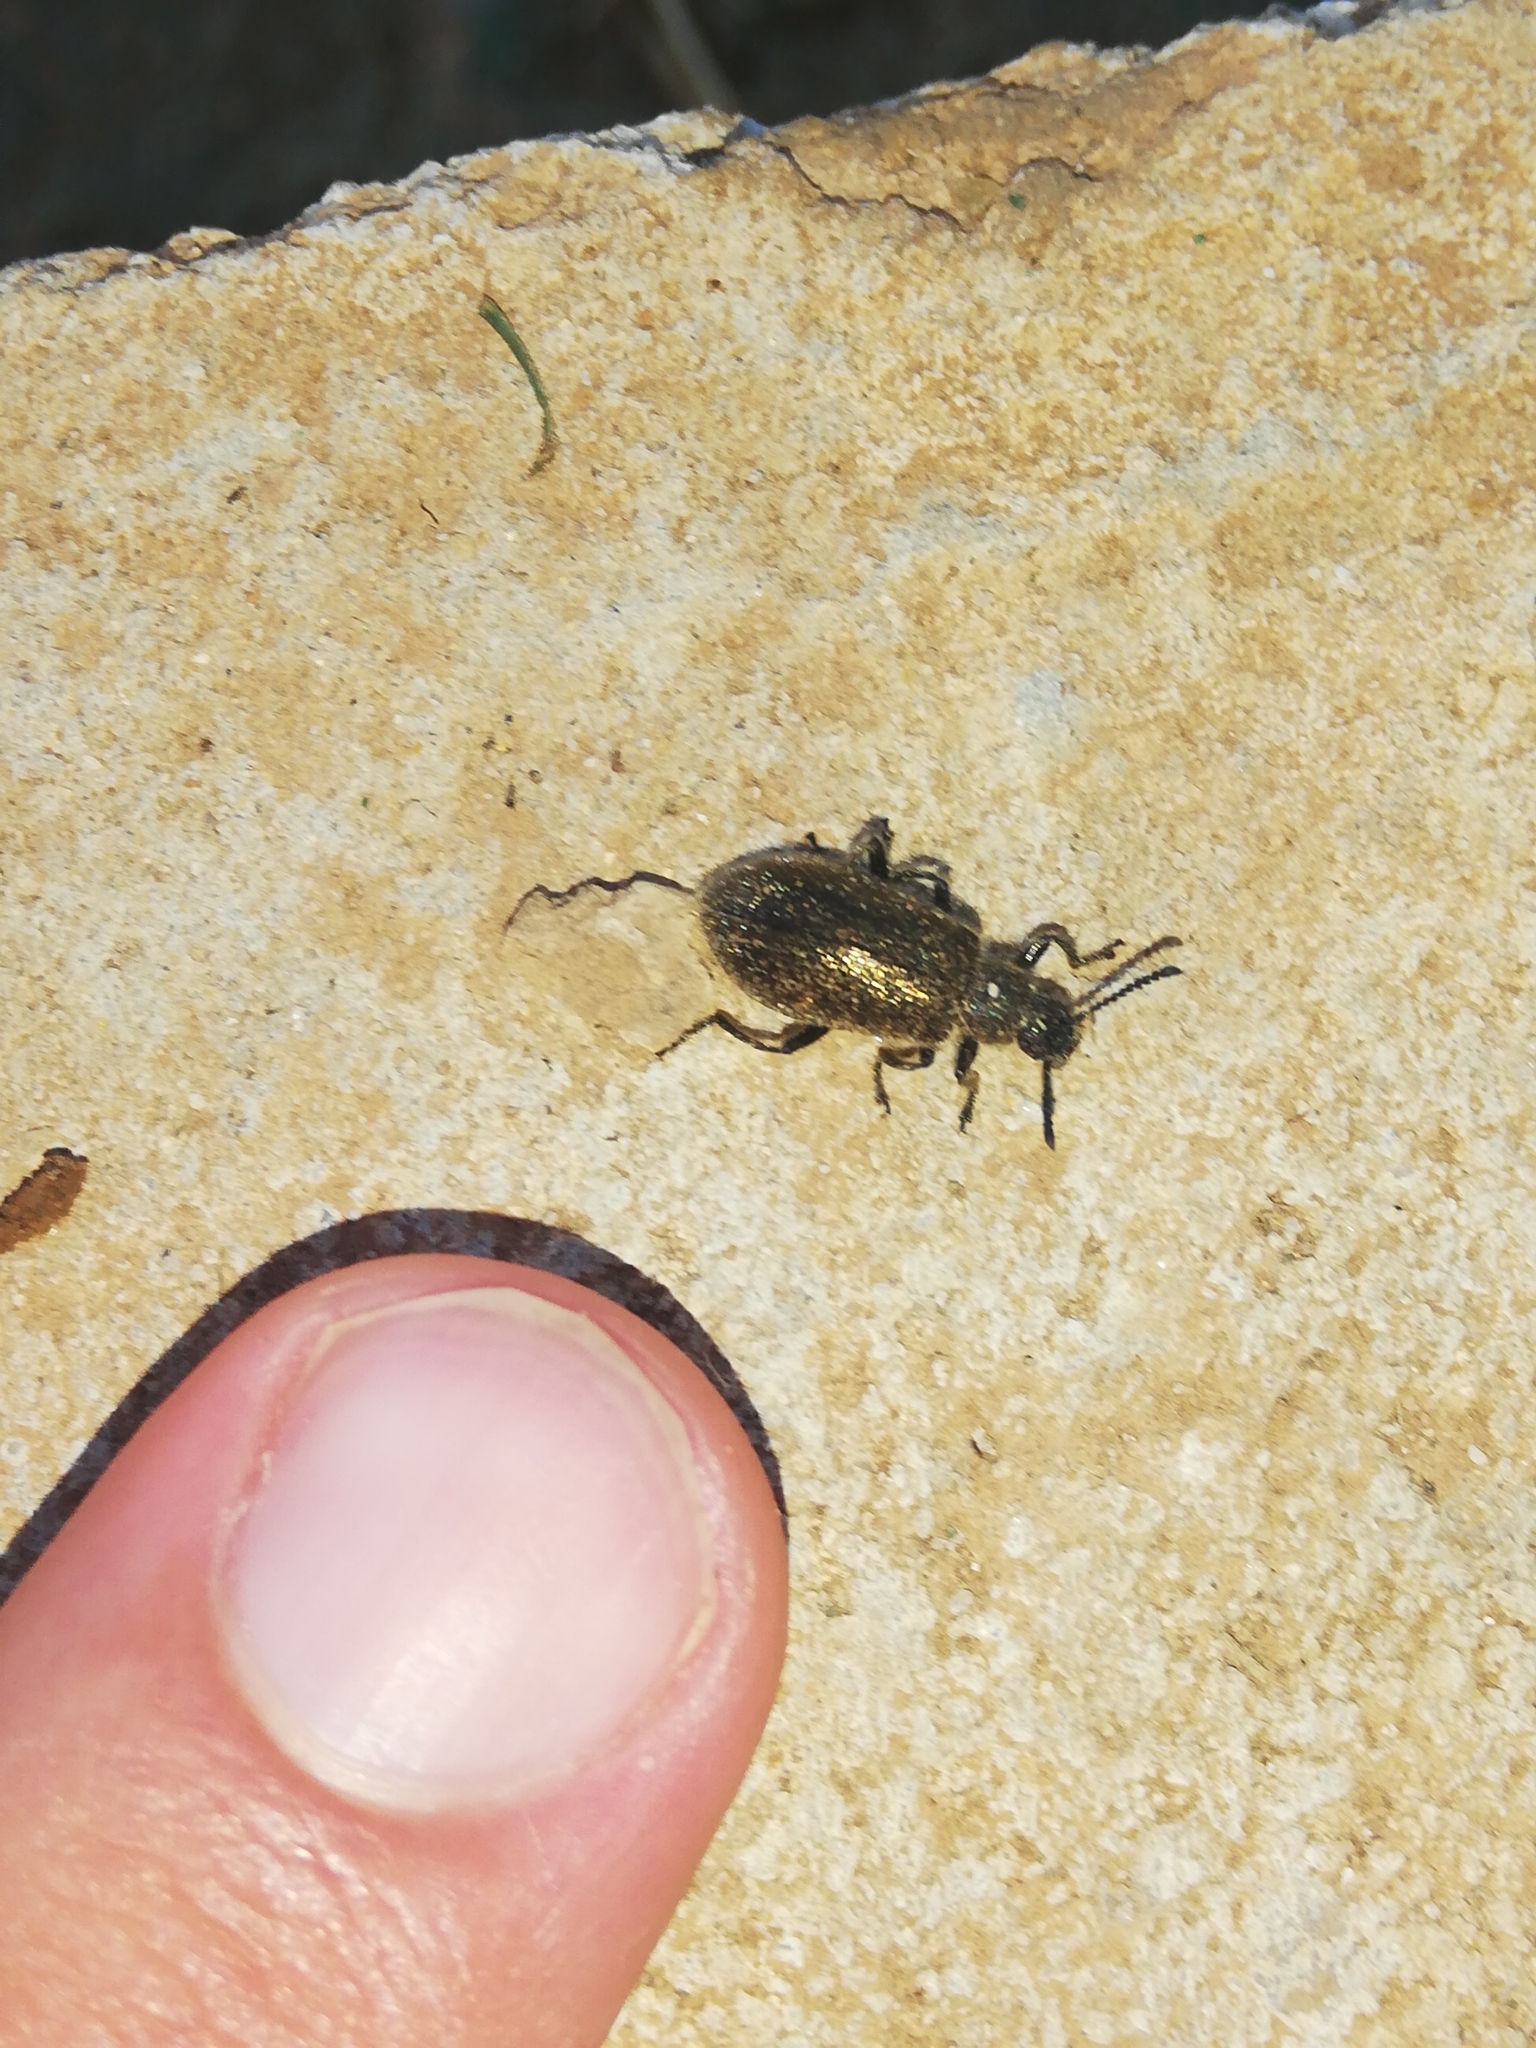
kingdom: Animalia
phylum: Arthropoda
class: Insecta
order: Coleoptera
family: Tenebrionidae
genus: Lagria
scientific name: Lagria villosa
